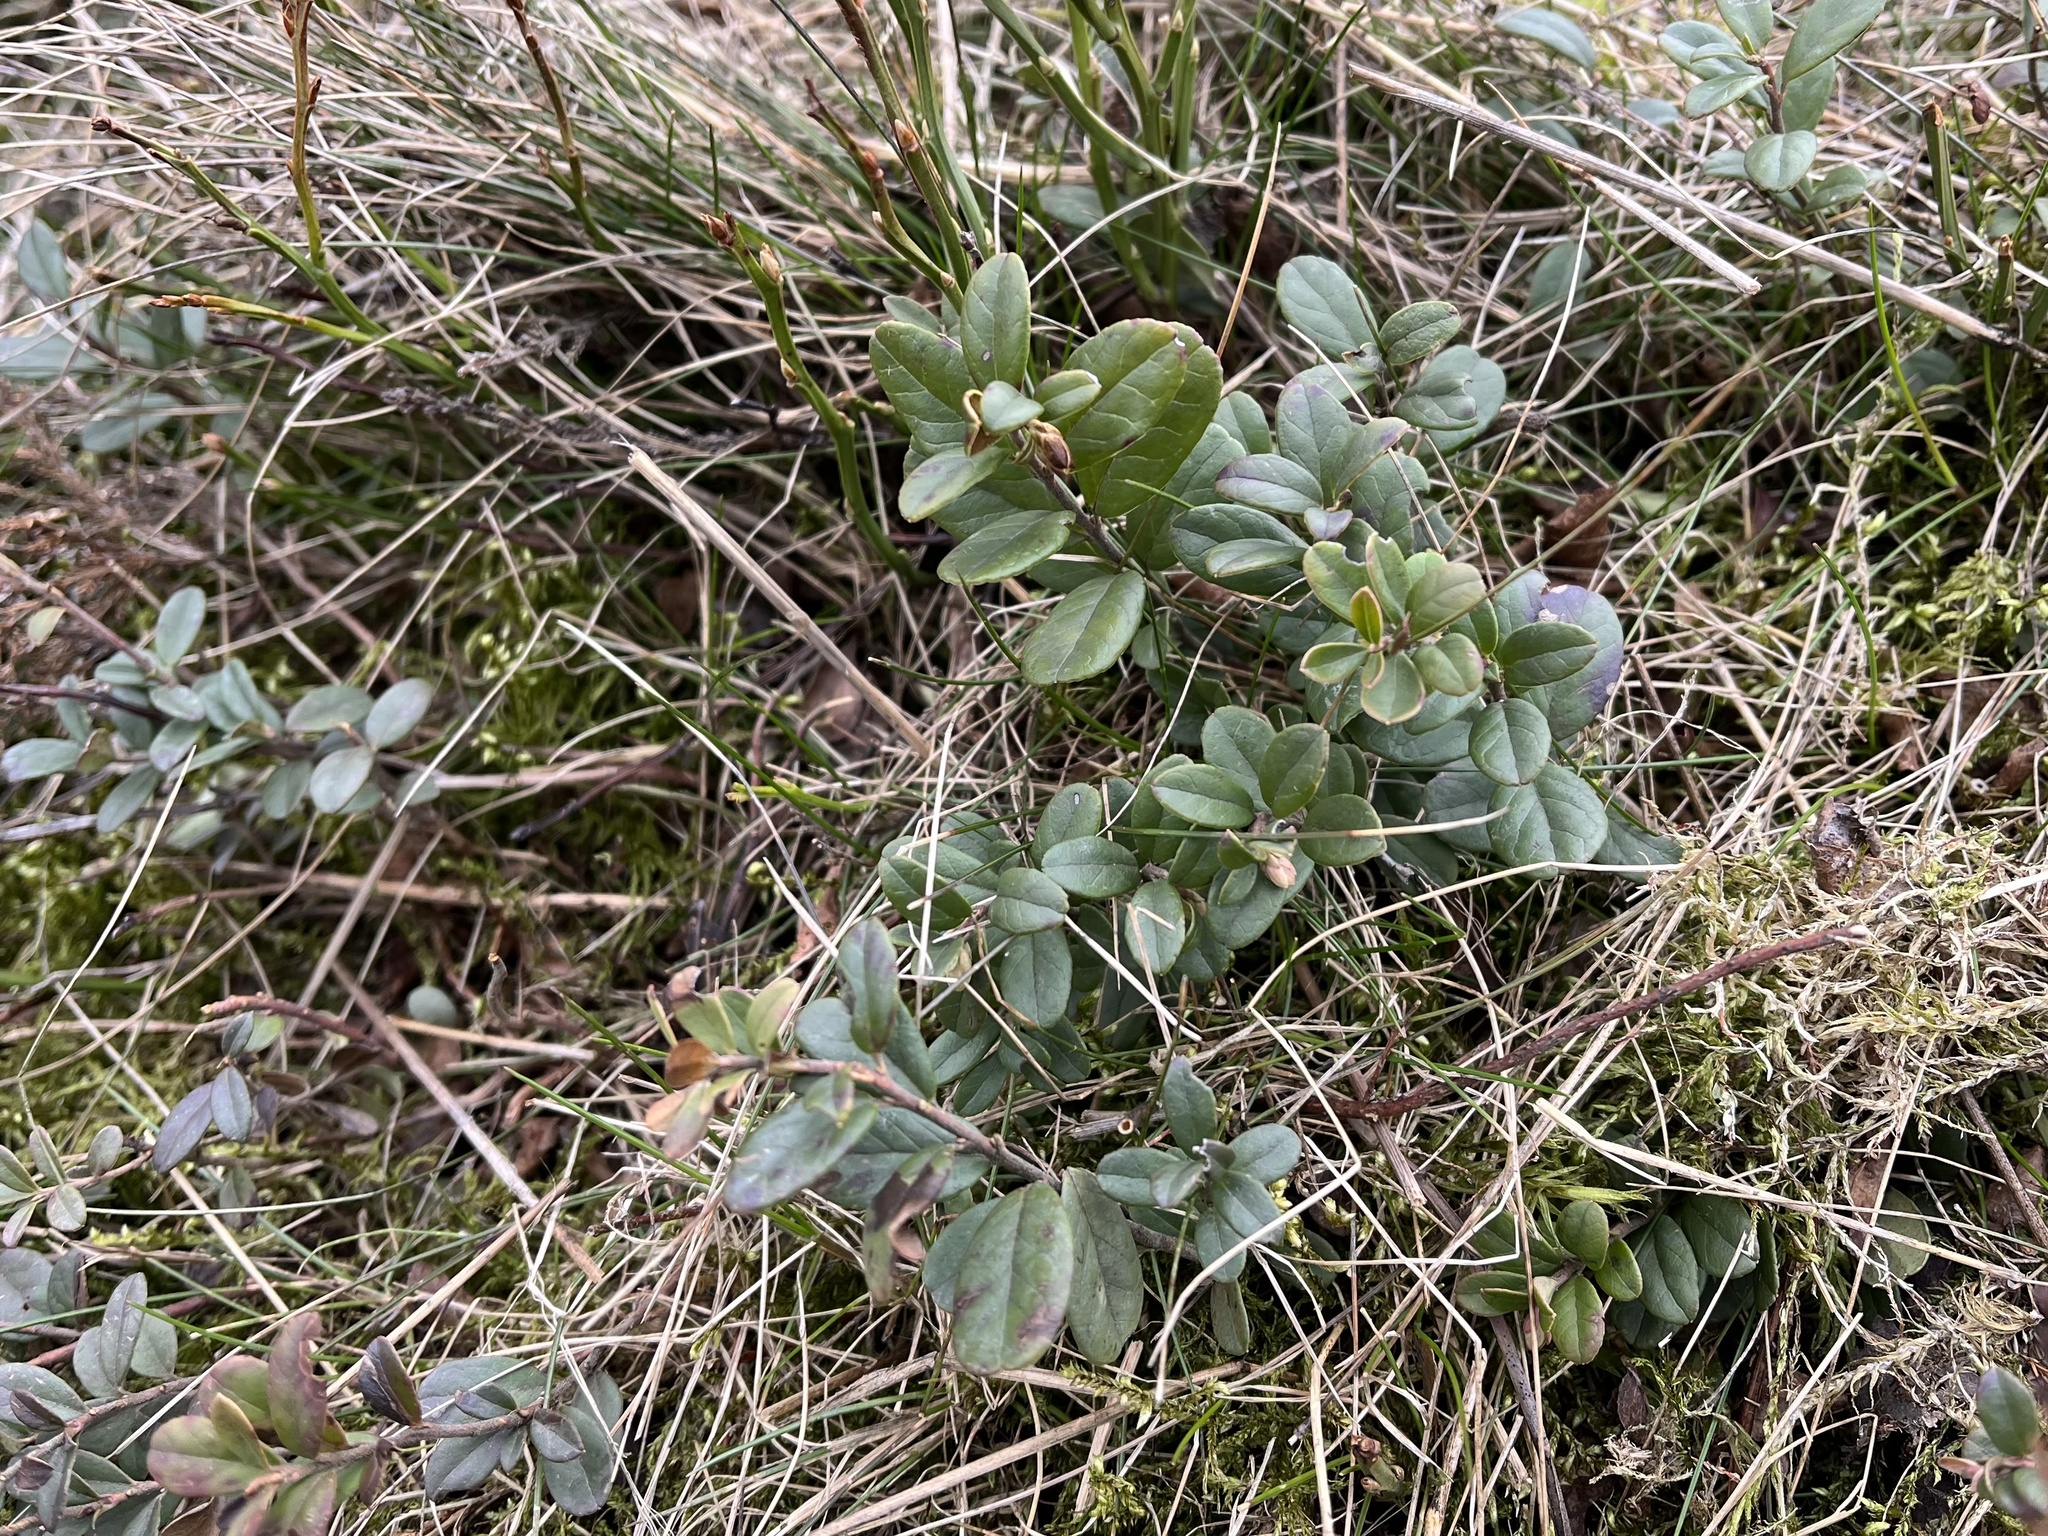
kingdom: Plantae
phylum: Tracheophyta
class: Magnoliopsida
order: Ericales
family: Ericaceae
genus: Vaccinium
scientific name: Vaccinium vitis-idaea
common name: Cowberry
